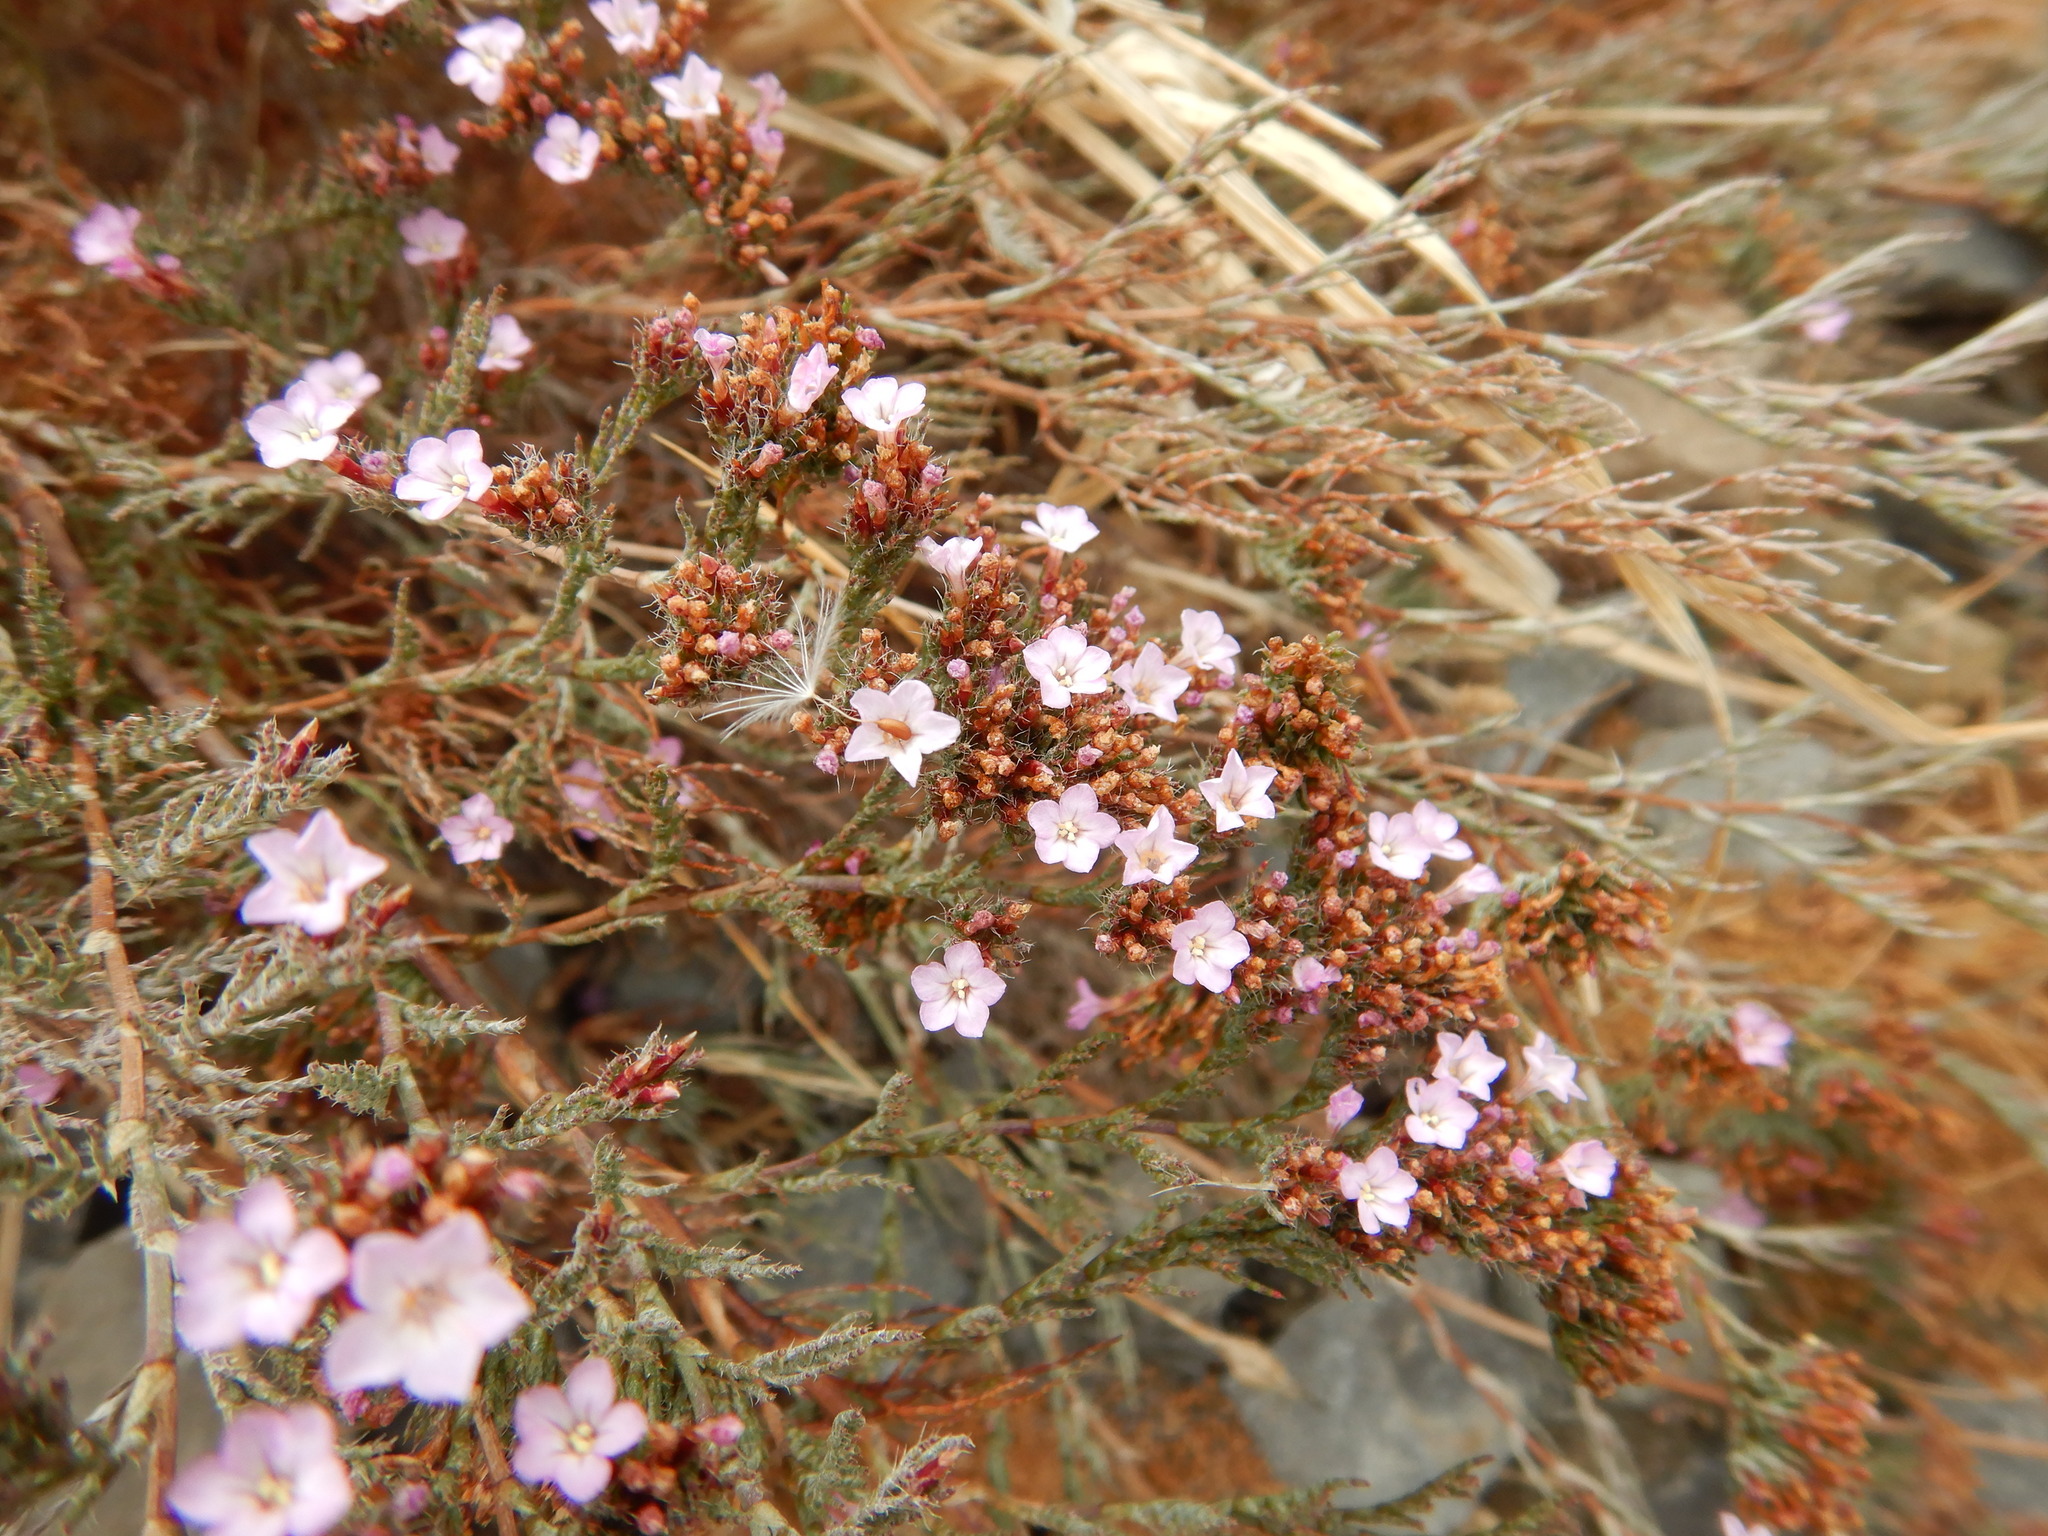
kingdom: Plantae
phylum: Tracheophyta
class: Magnoliopsida
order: Caryophyllales
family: Plumbaginaceae
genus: Myriolimon
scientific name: Myriolimon ferulaceum
